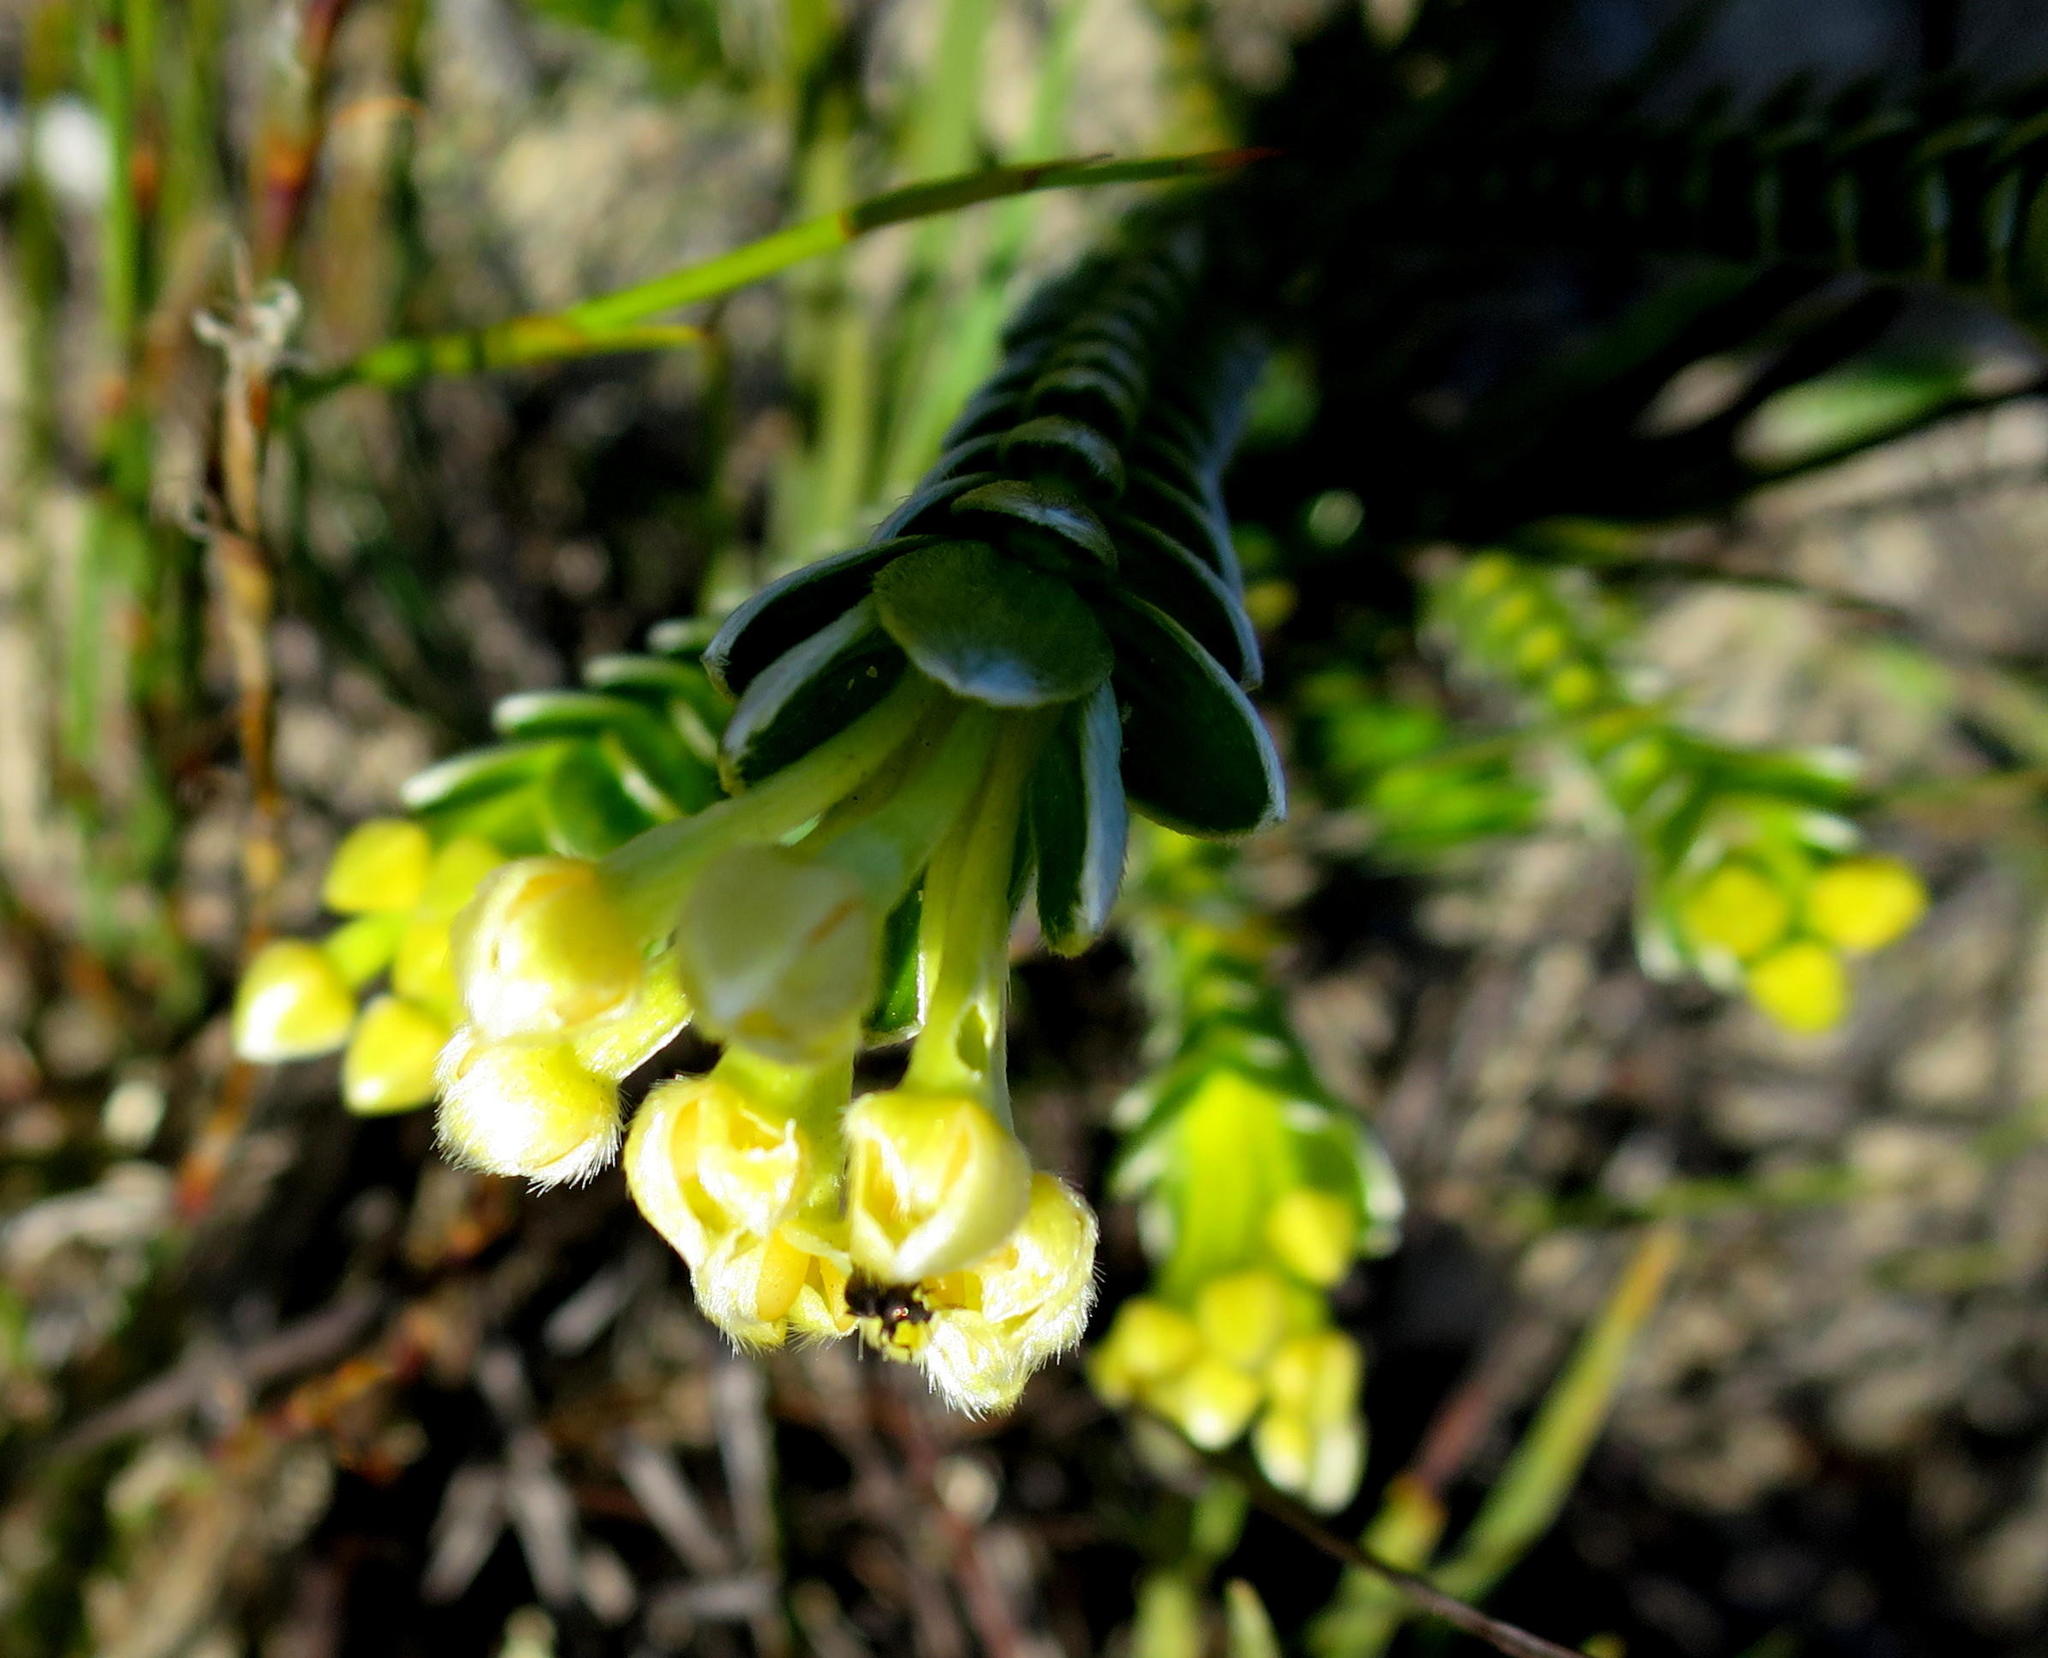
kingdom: Plantae
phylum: Tracheophyta
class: Magnoliopsida
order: Malvales
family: Thymelaeaceae
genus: Gnidia
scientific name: Gnidia chrysophylla
